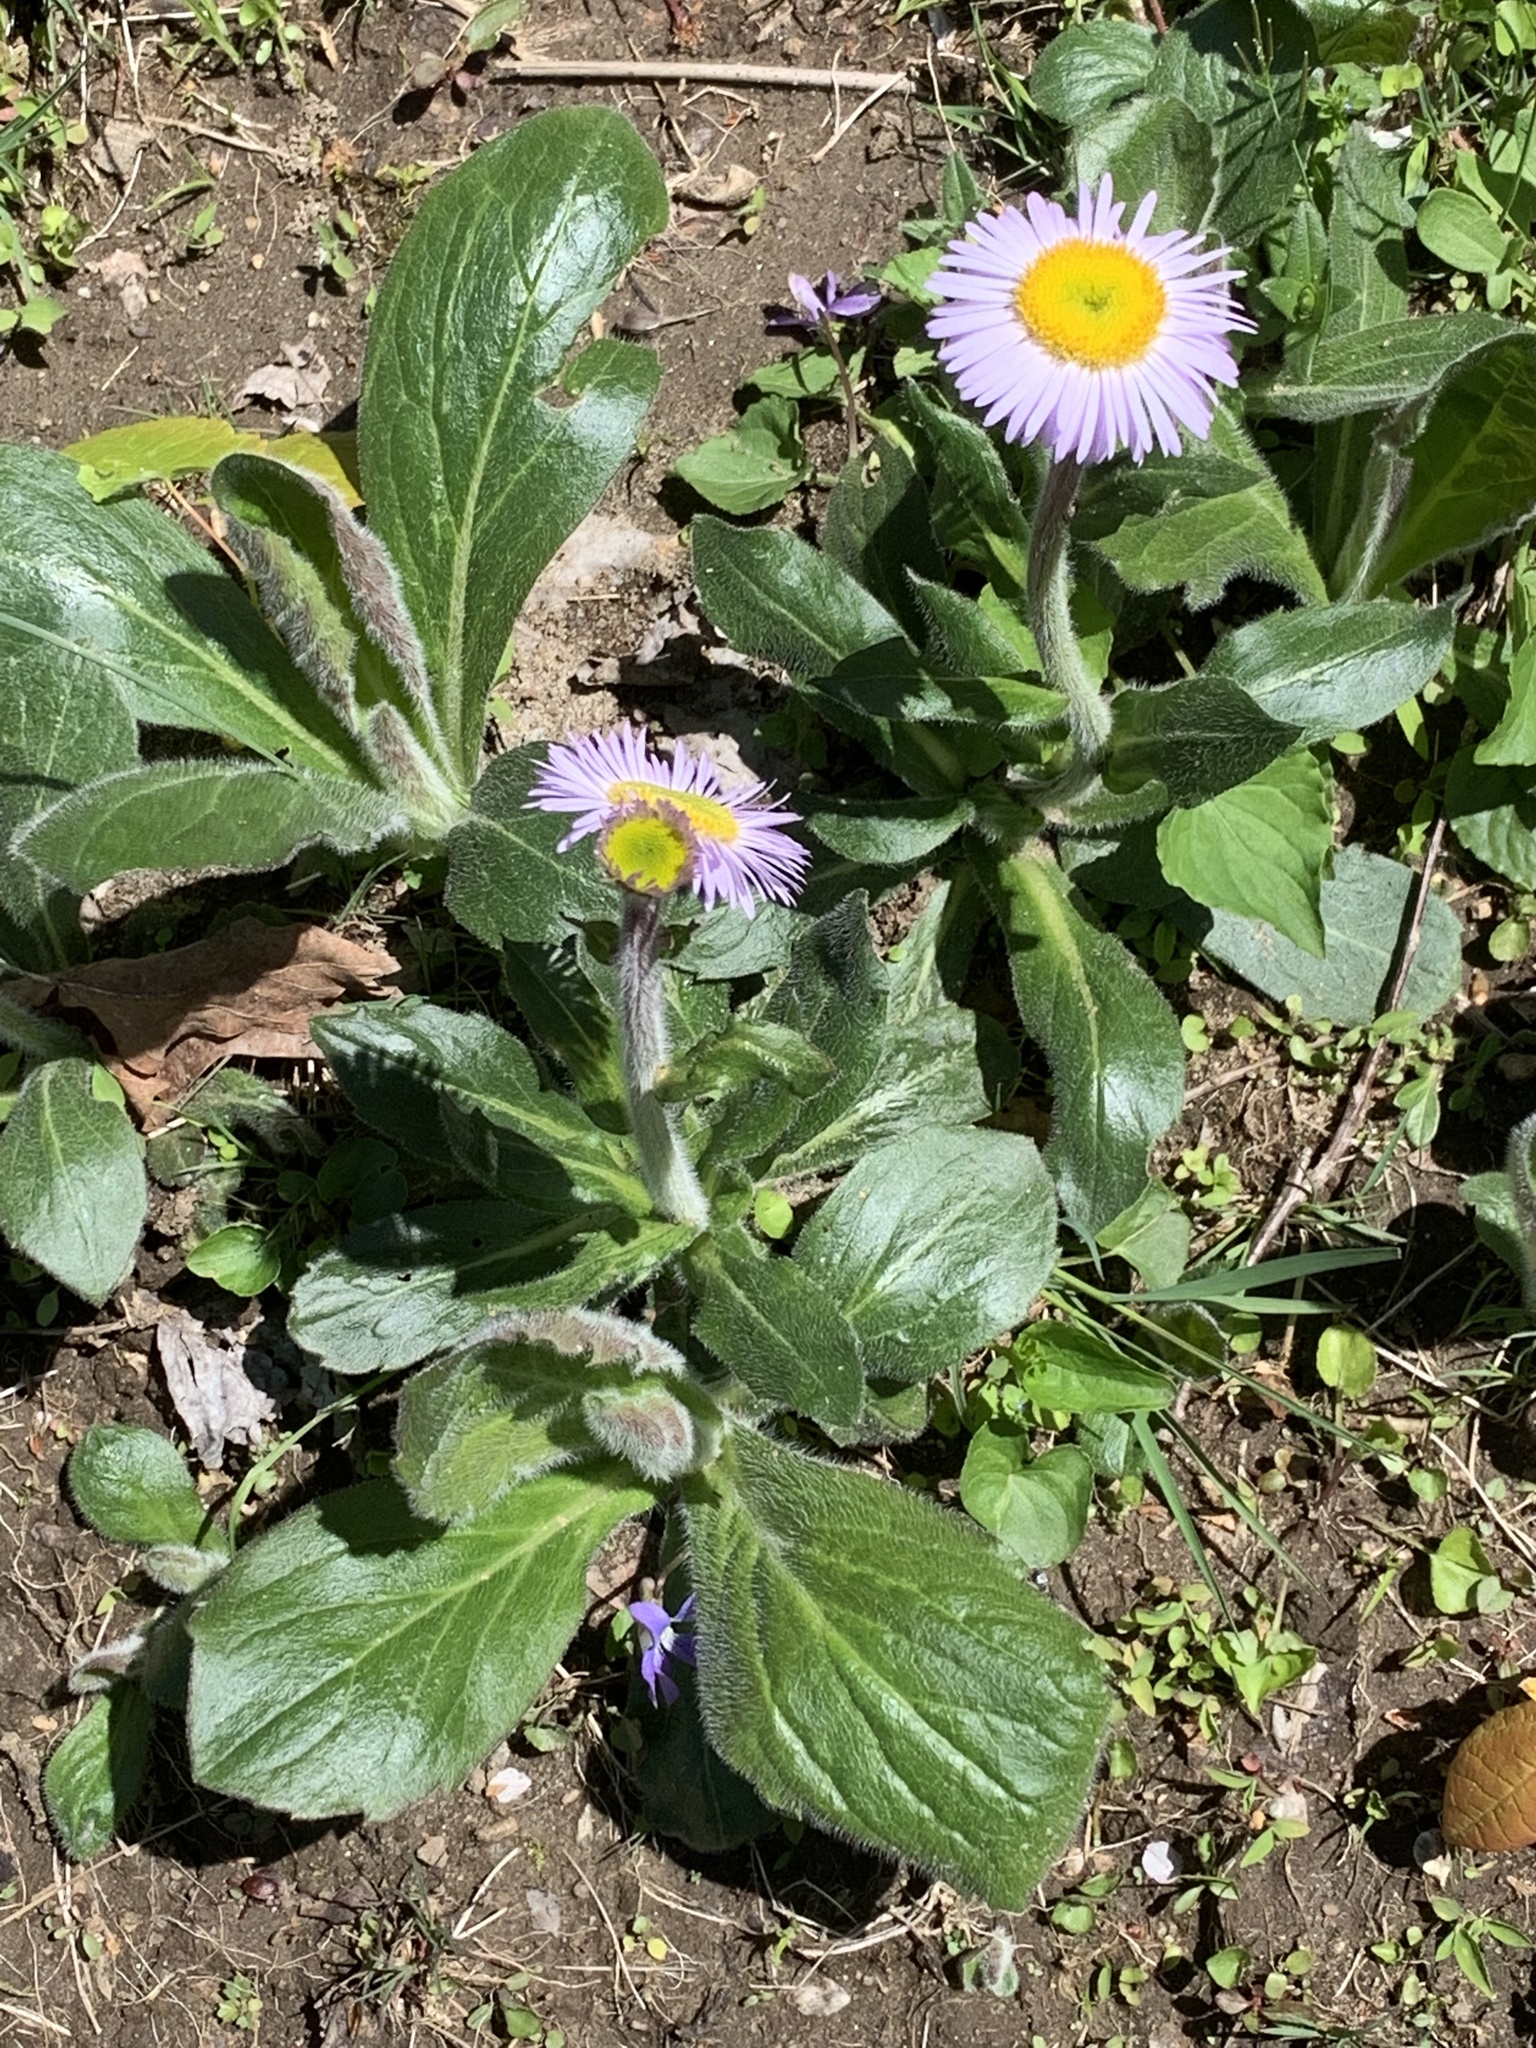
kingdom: Plantae
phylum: Tracheophyta
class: Magnoliopsida
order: Asterales
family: Asteraceae
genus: Erigeron
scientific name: Erigeron pulchellus
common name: Hairy fleabane
